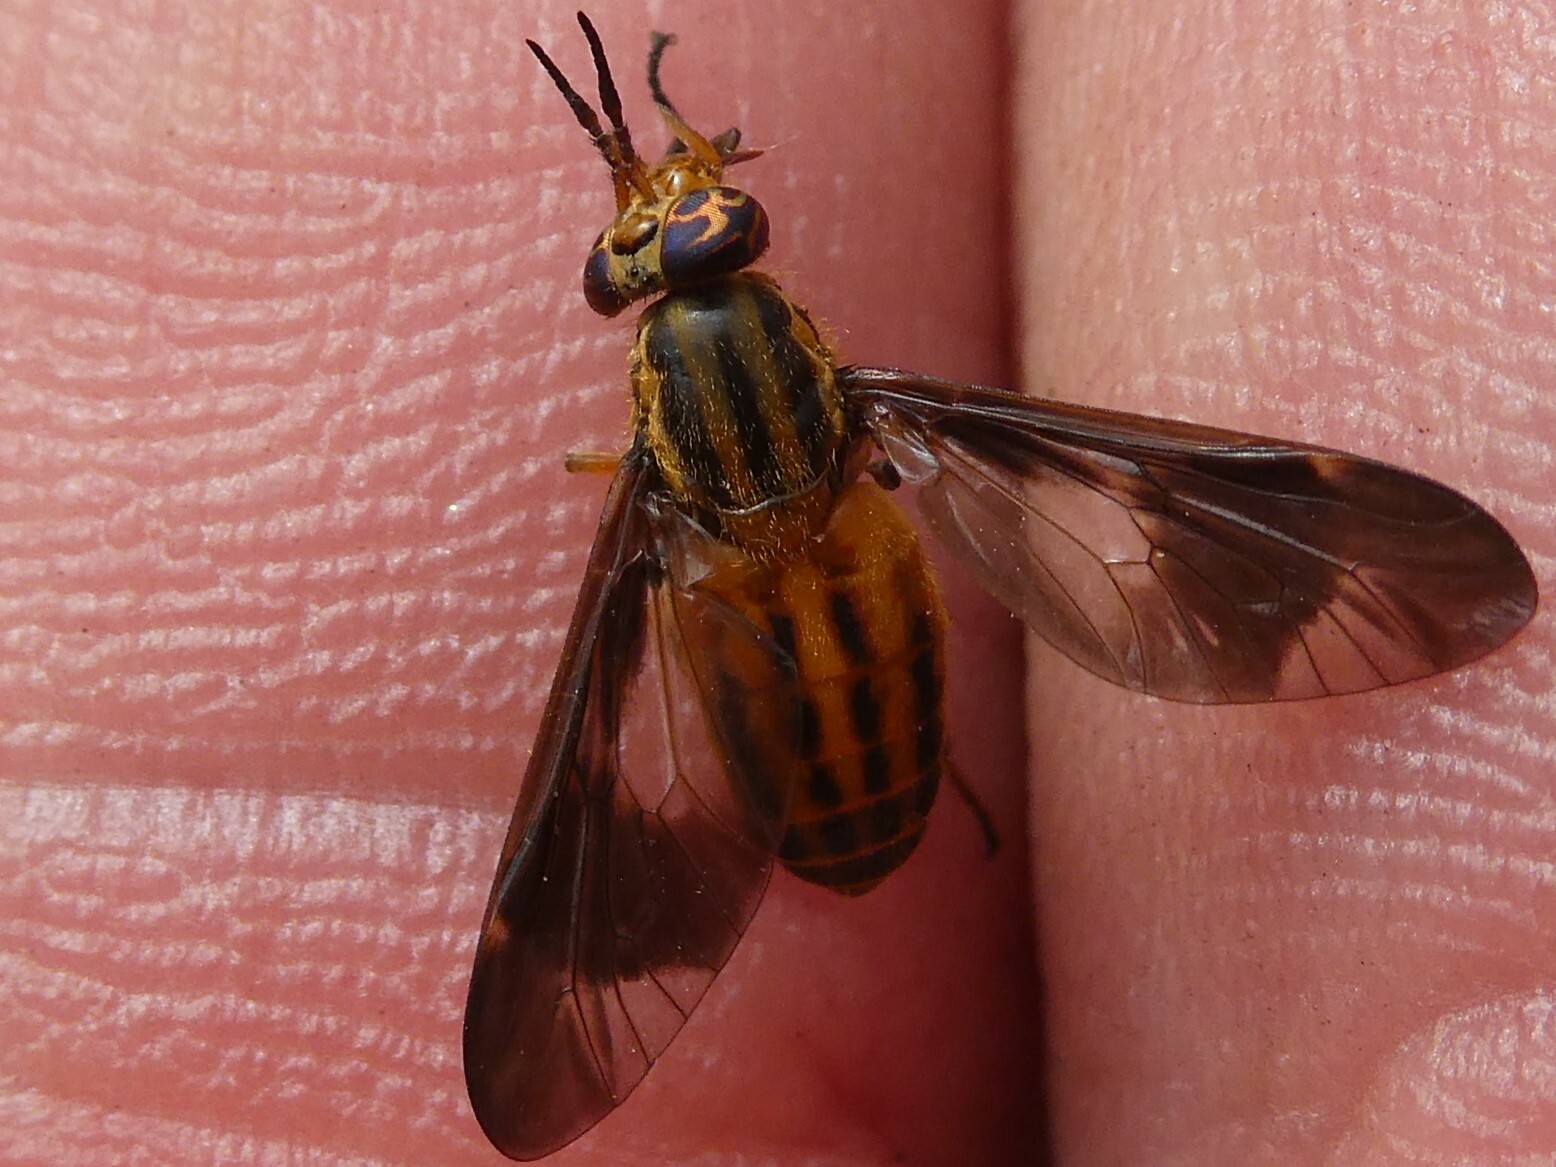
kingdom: Animalia
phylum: Arthropoda
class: Insecta
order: Diptera
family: Tabanidae
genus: Chrysops
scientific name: Chrysops vittatus
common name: Striped deer fly
